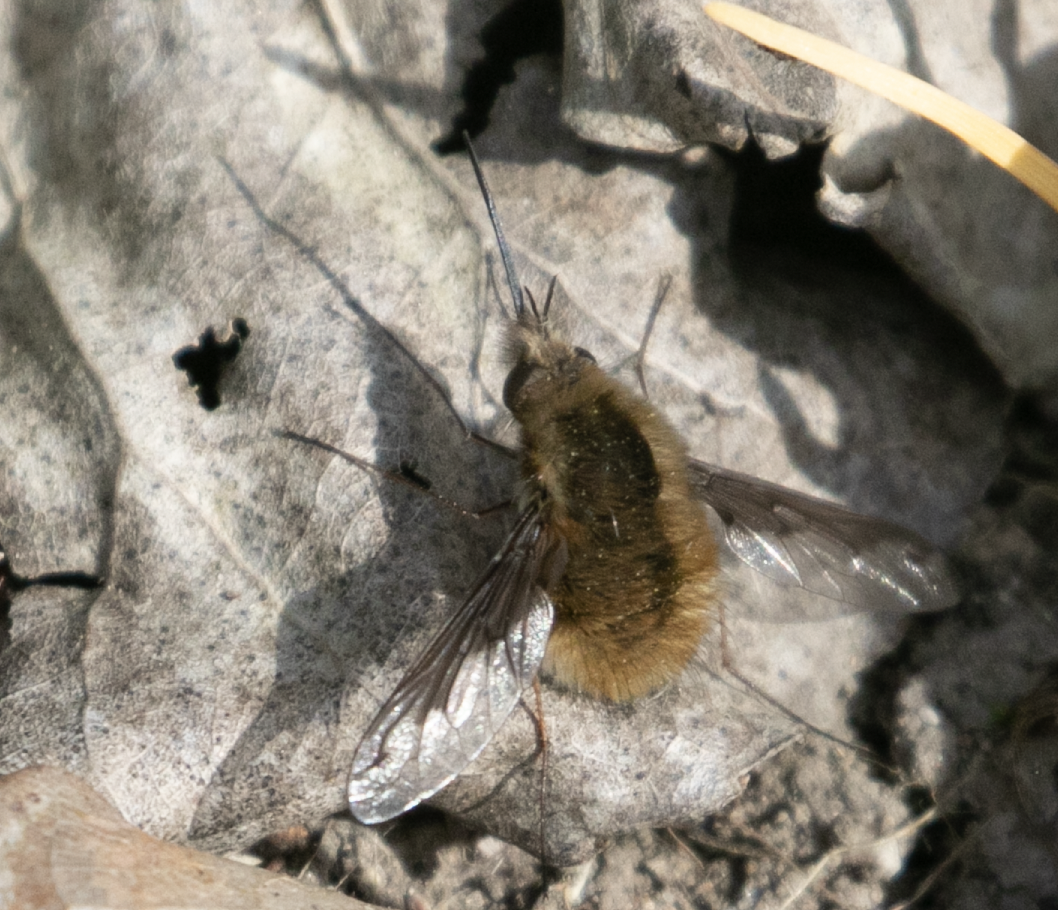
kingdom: Animalia
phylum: Arthropoda
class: Insecta
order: Diptera
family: Bombyliidae
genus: Bombylius
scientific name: Bombylius major
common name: Bee fly
